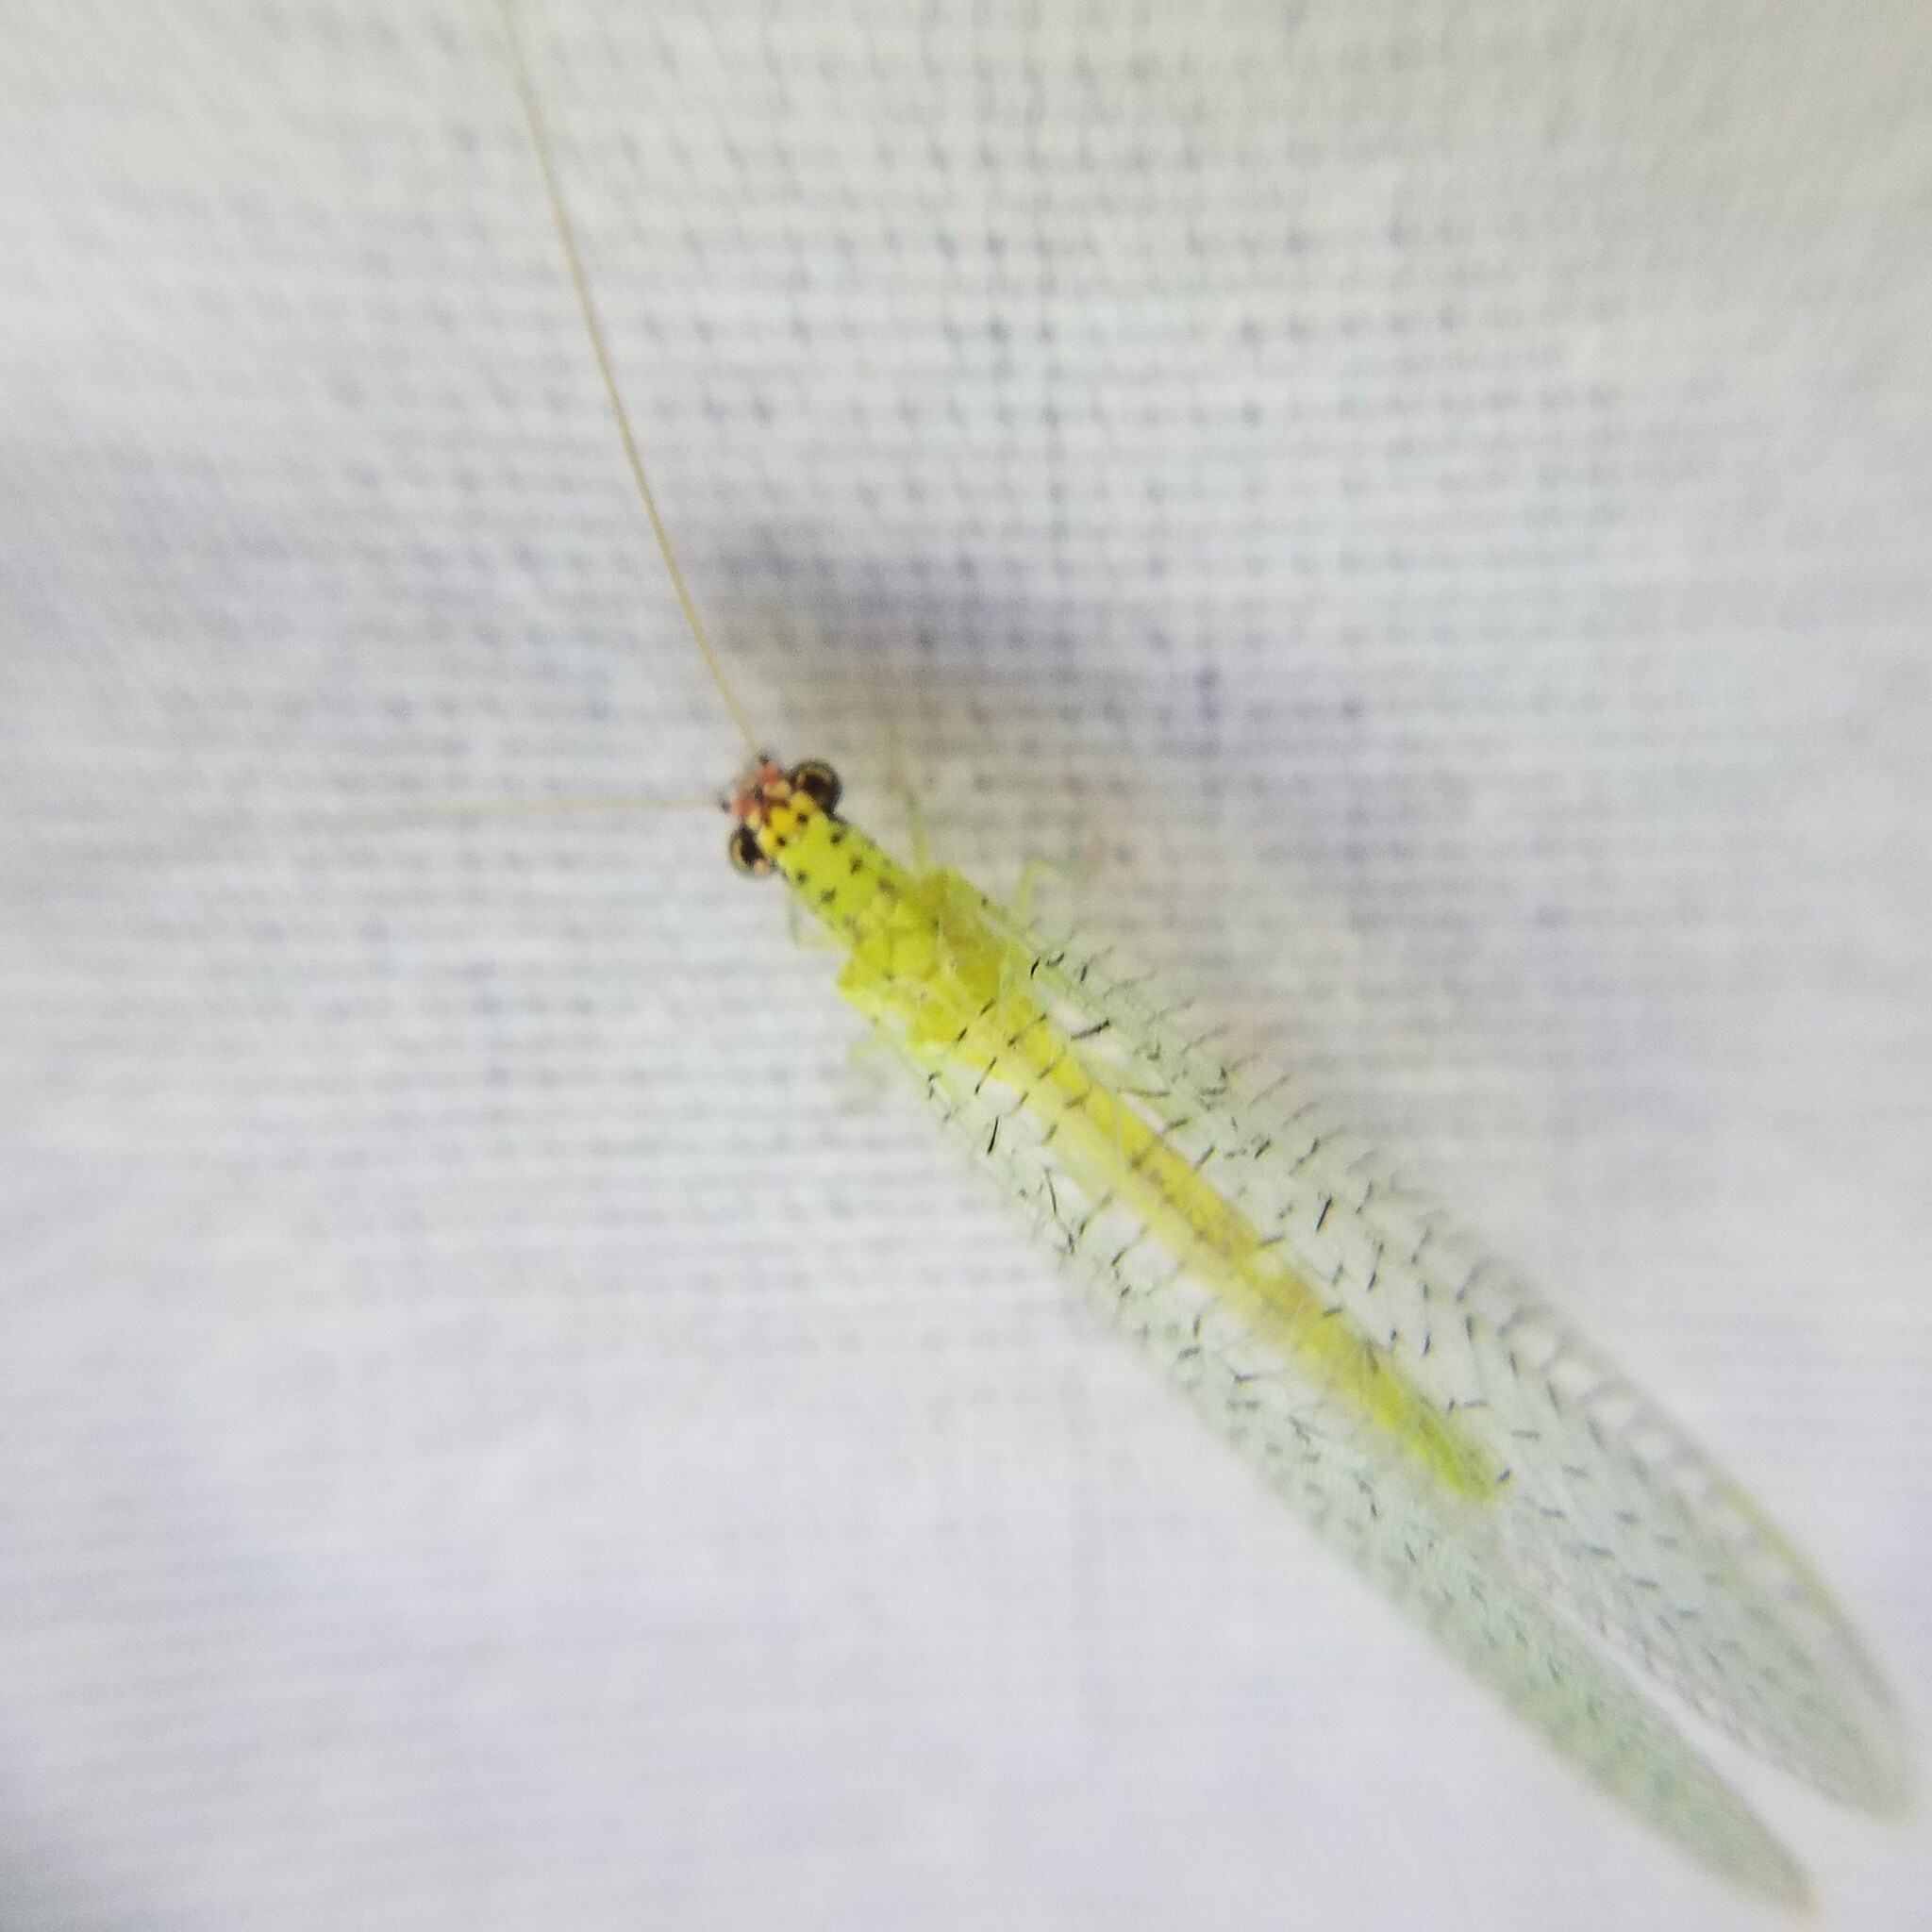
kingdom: Animalia
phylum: Arthropoda
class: Insecta
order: Neuroptera
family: Chrysopidae
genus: Chrysopa
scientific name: Chrysopa oculata
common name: Golden-eyed lacewing
